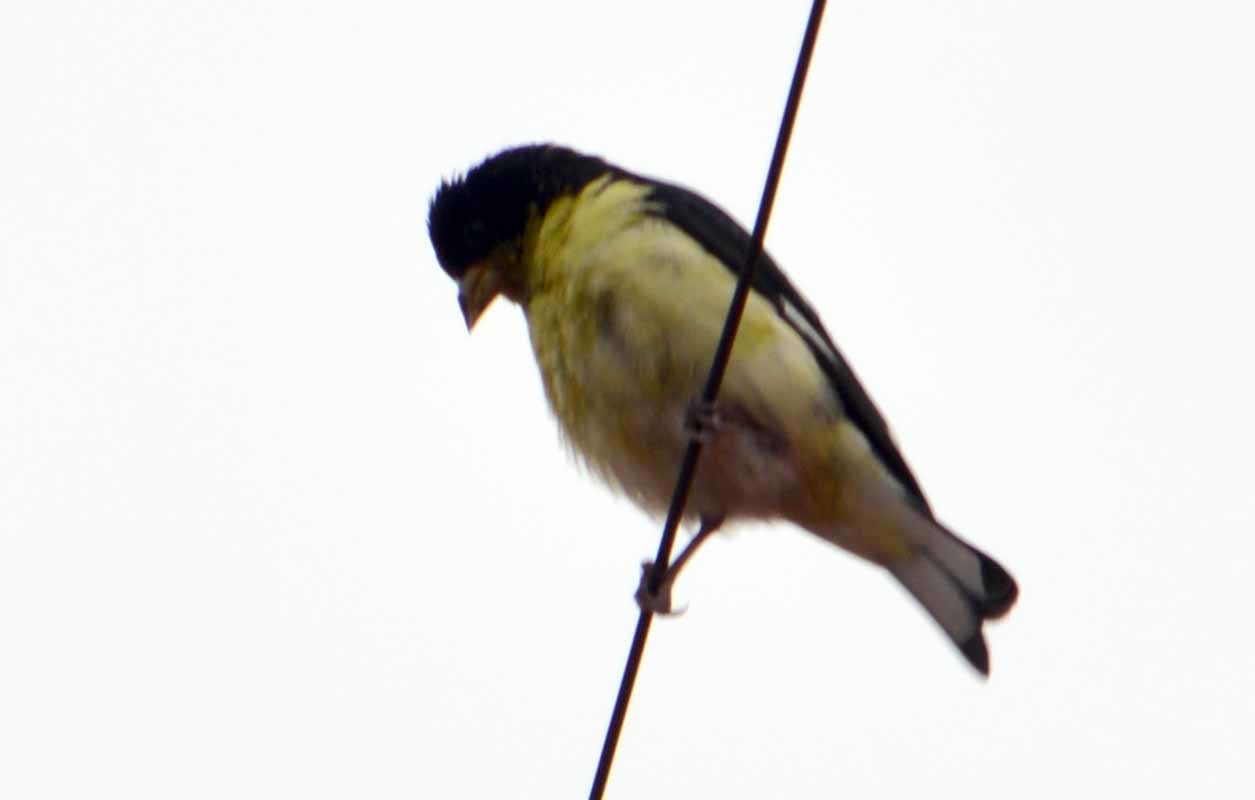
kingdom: Animalia
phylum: Chordata
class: Aves
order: Passeriformes
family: Fringillidae
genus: Spinus
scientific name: Spinus psaltria
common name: Lesser goldfinch
